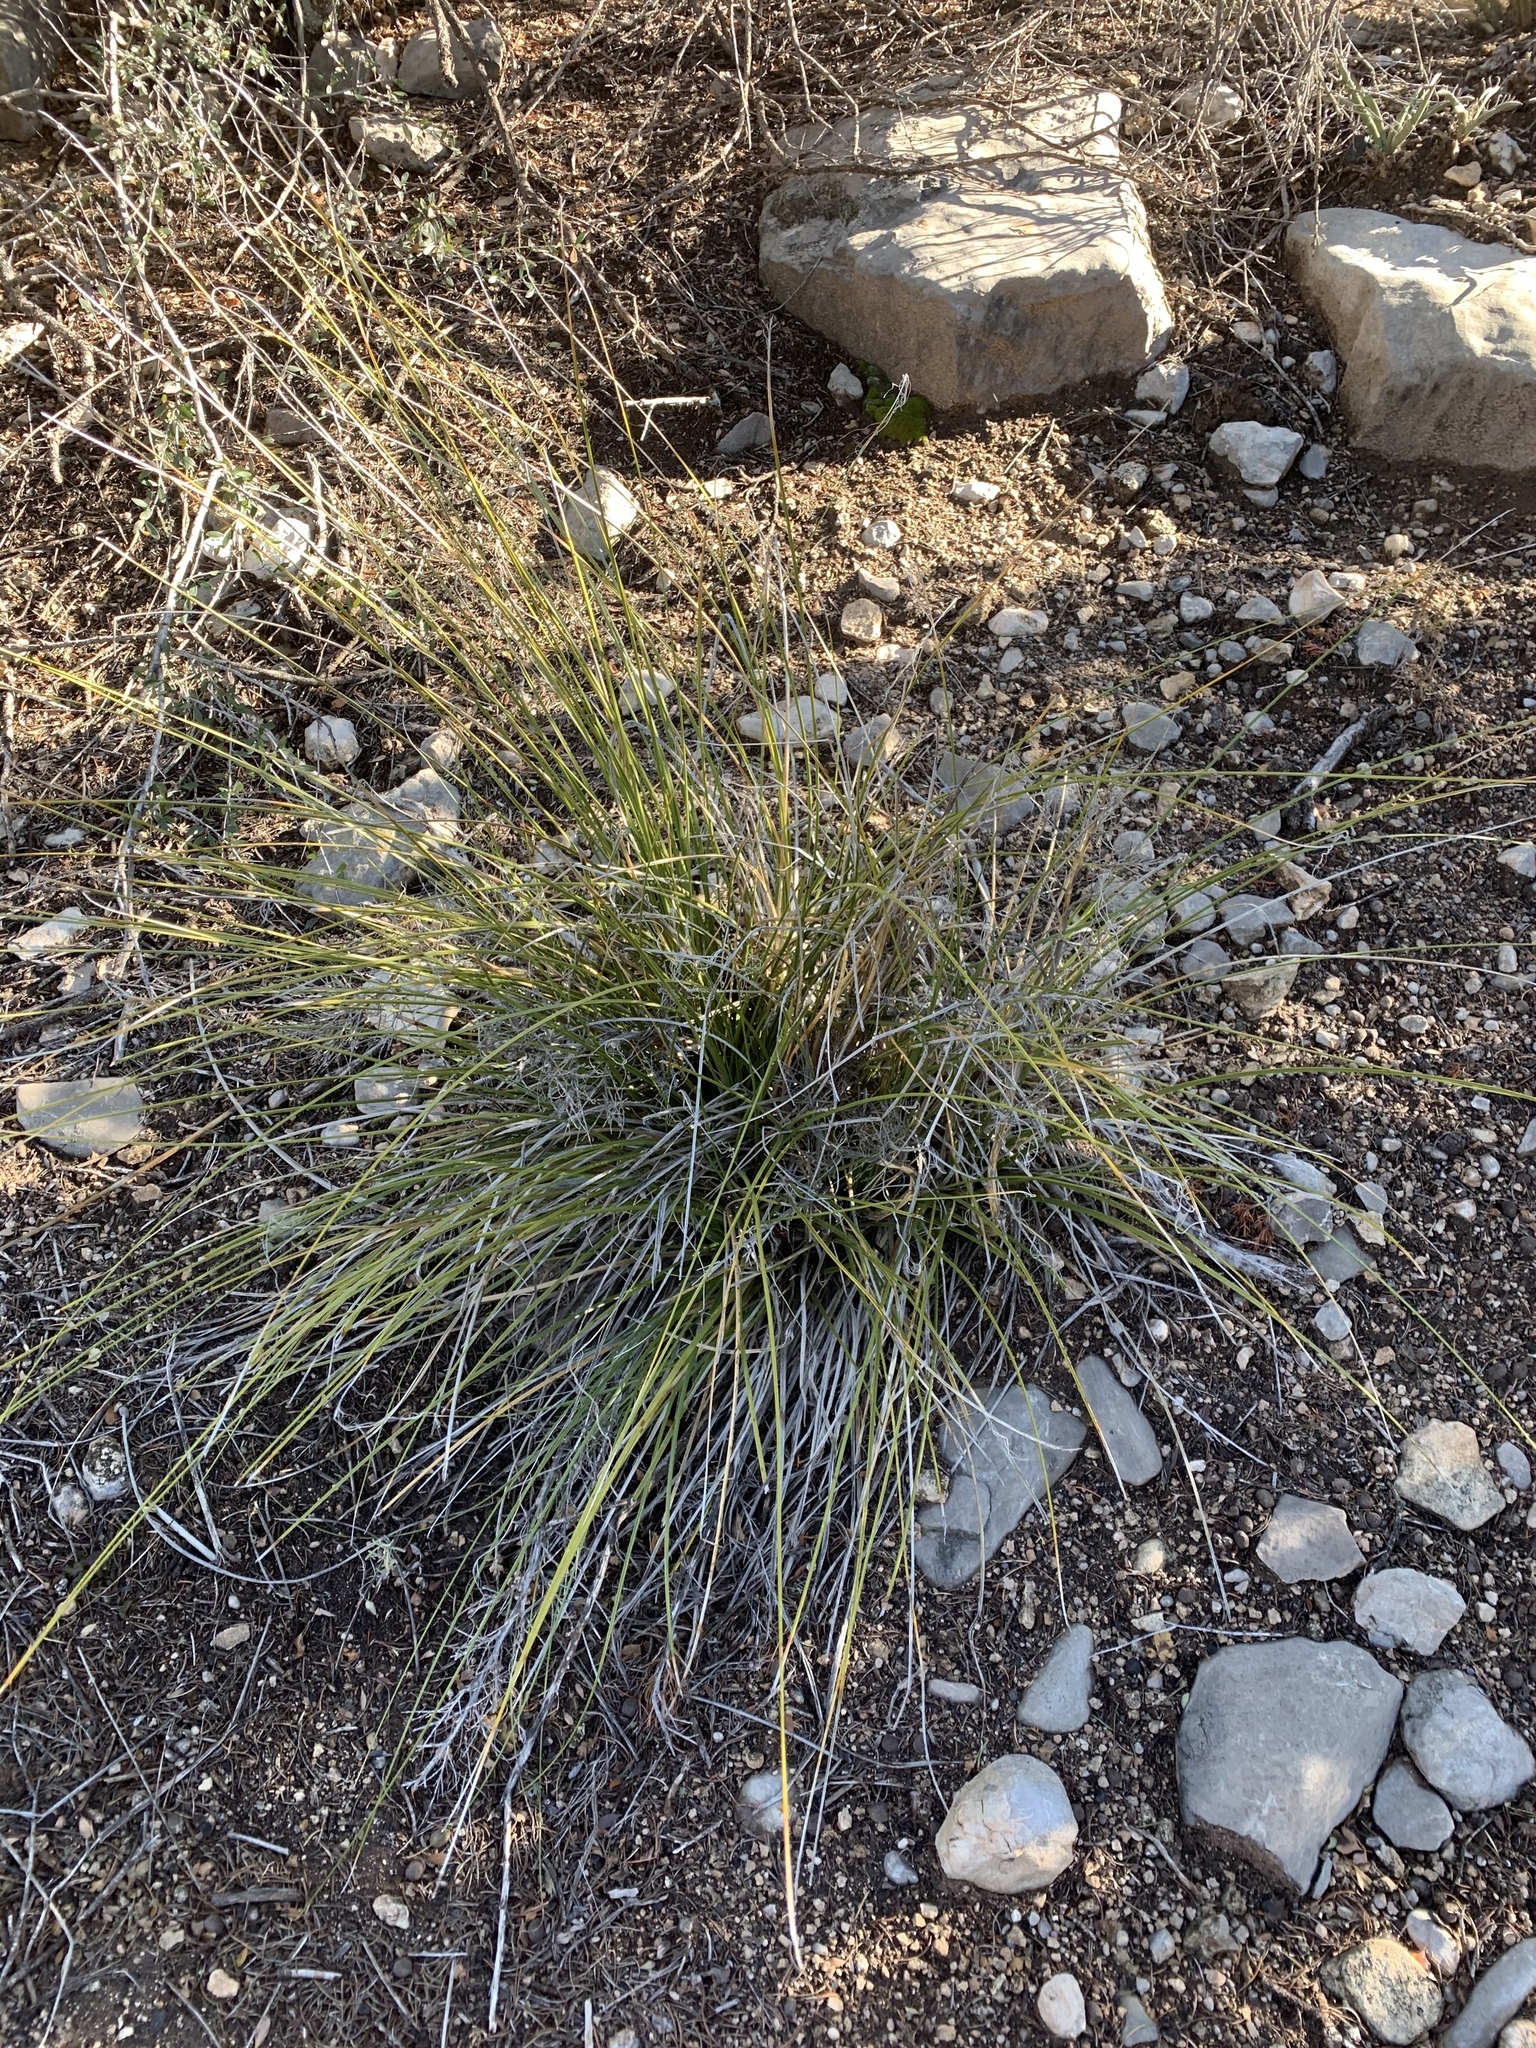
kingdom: Plantae
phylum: Tracheophyta
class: Liliopsida
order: Asparagales
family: Asparagaceae
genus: Nolina
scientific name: Nolina texana
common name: Texas sacahuiste
